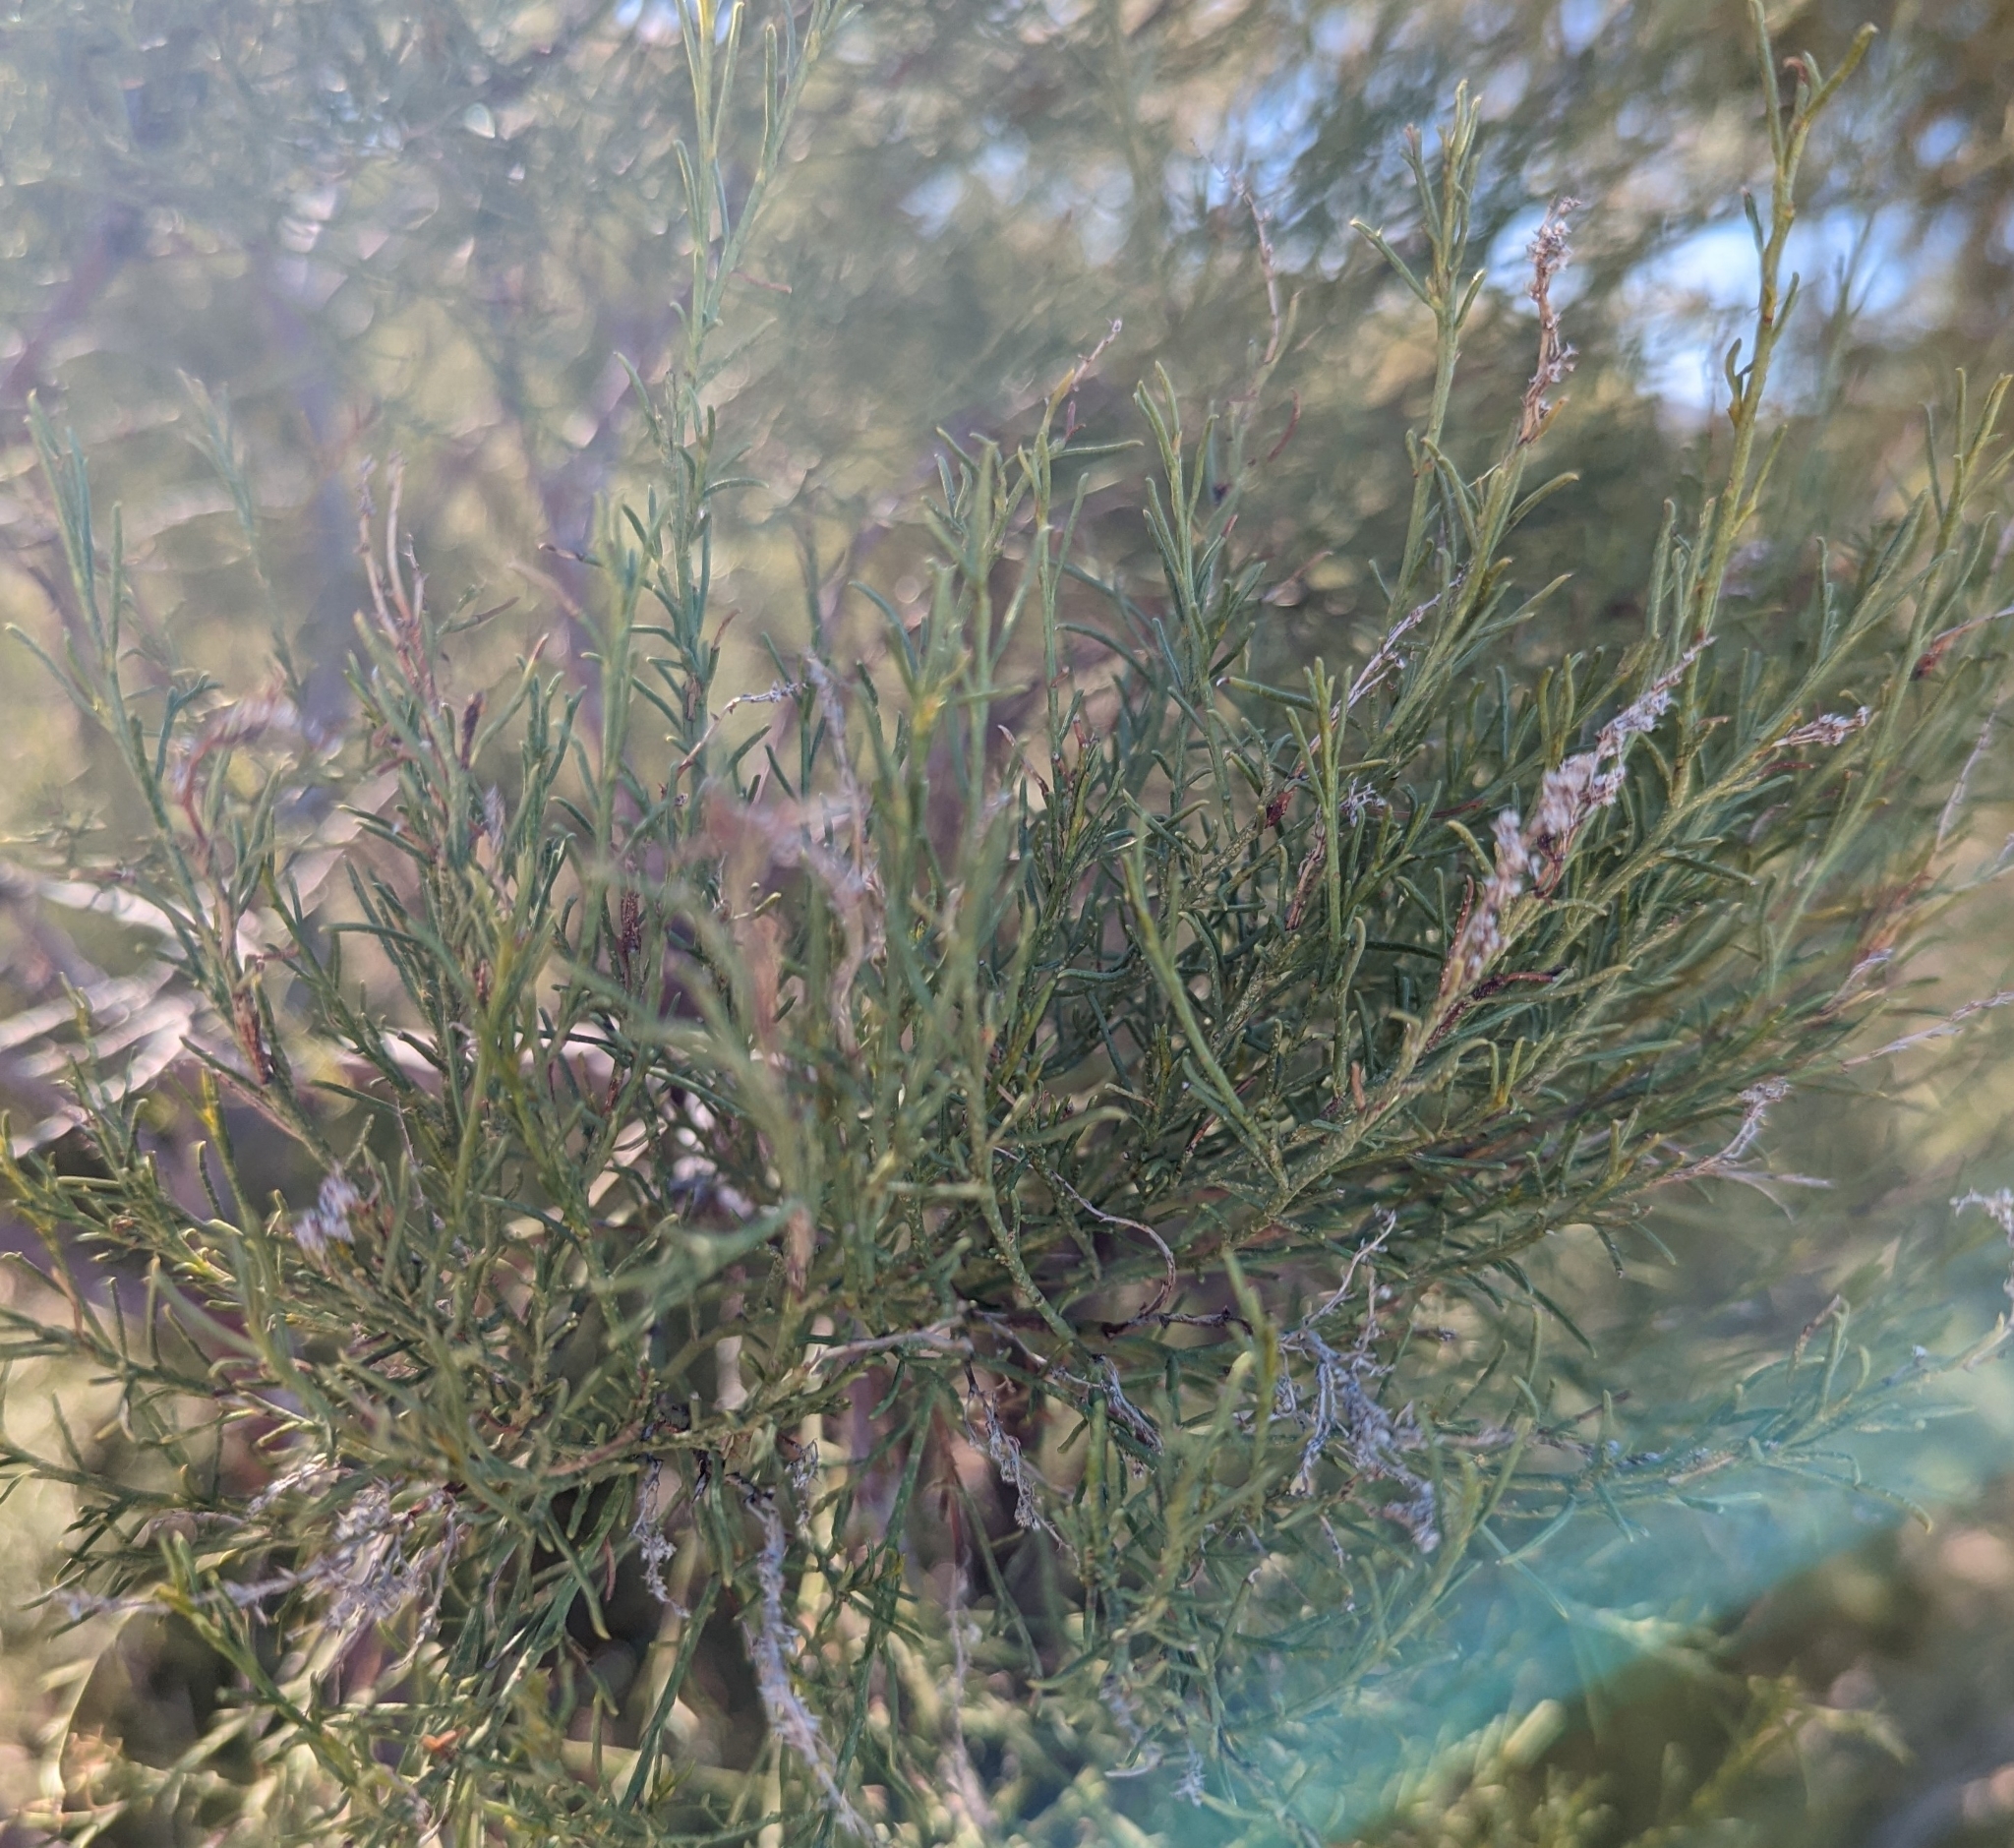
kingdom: Plantae
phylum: Tracheophyta
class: Magnoliopsida
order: Rosales
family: Rosaceae
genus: Adenostoma
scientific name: Adenostoma sparsifolium
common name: Red shank
